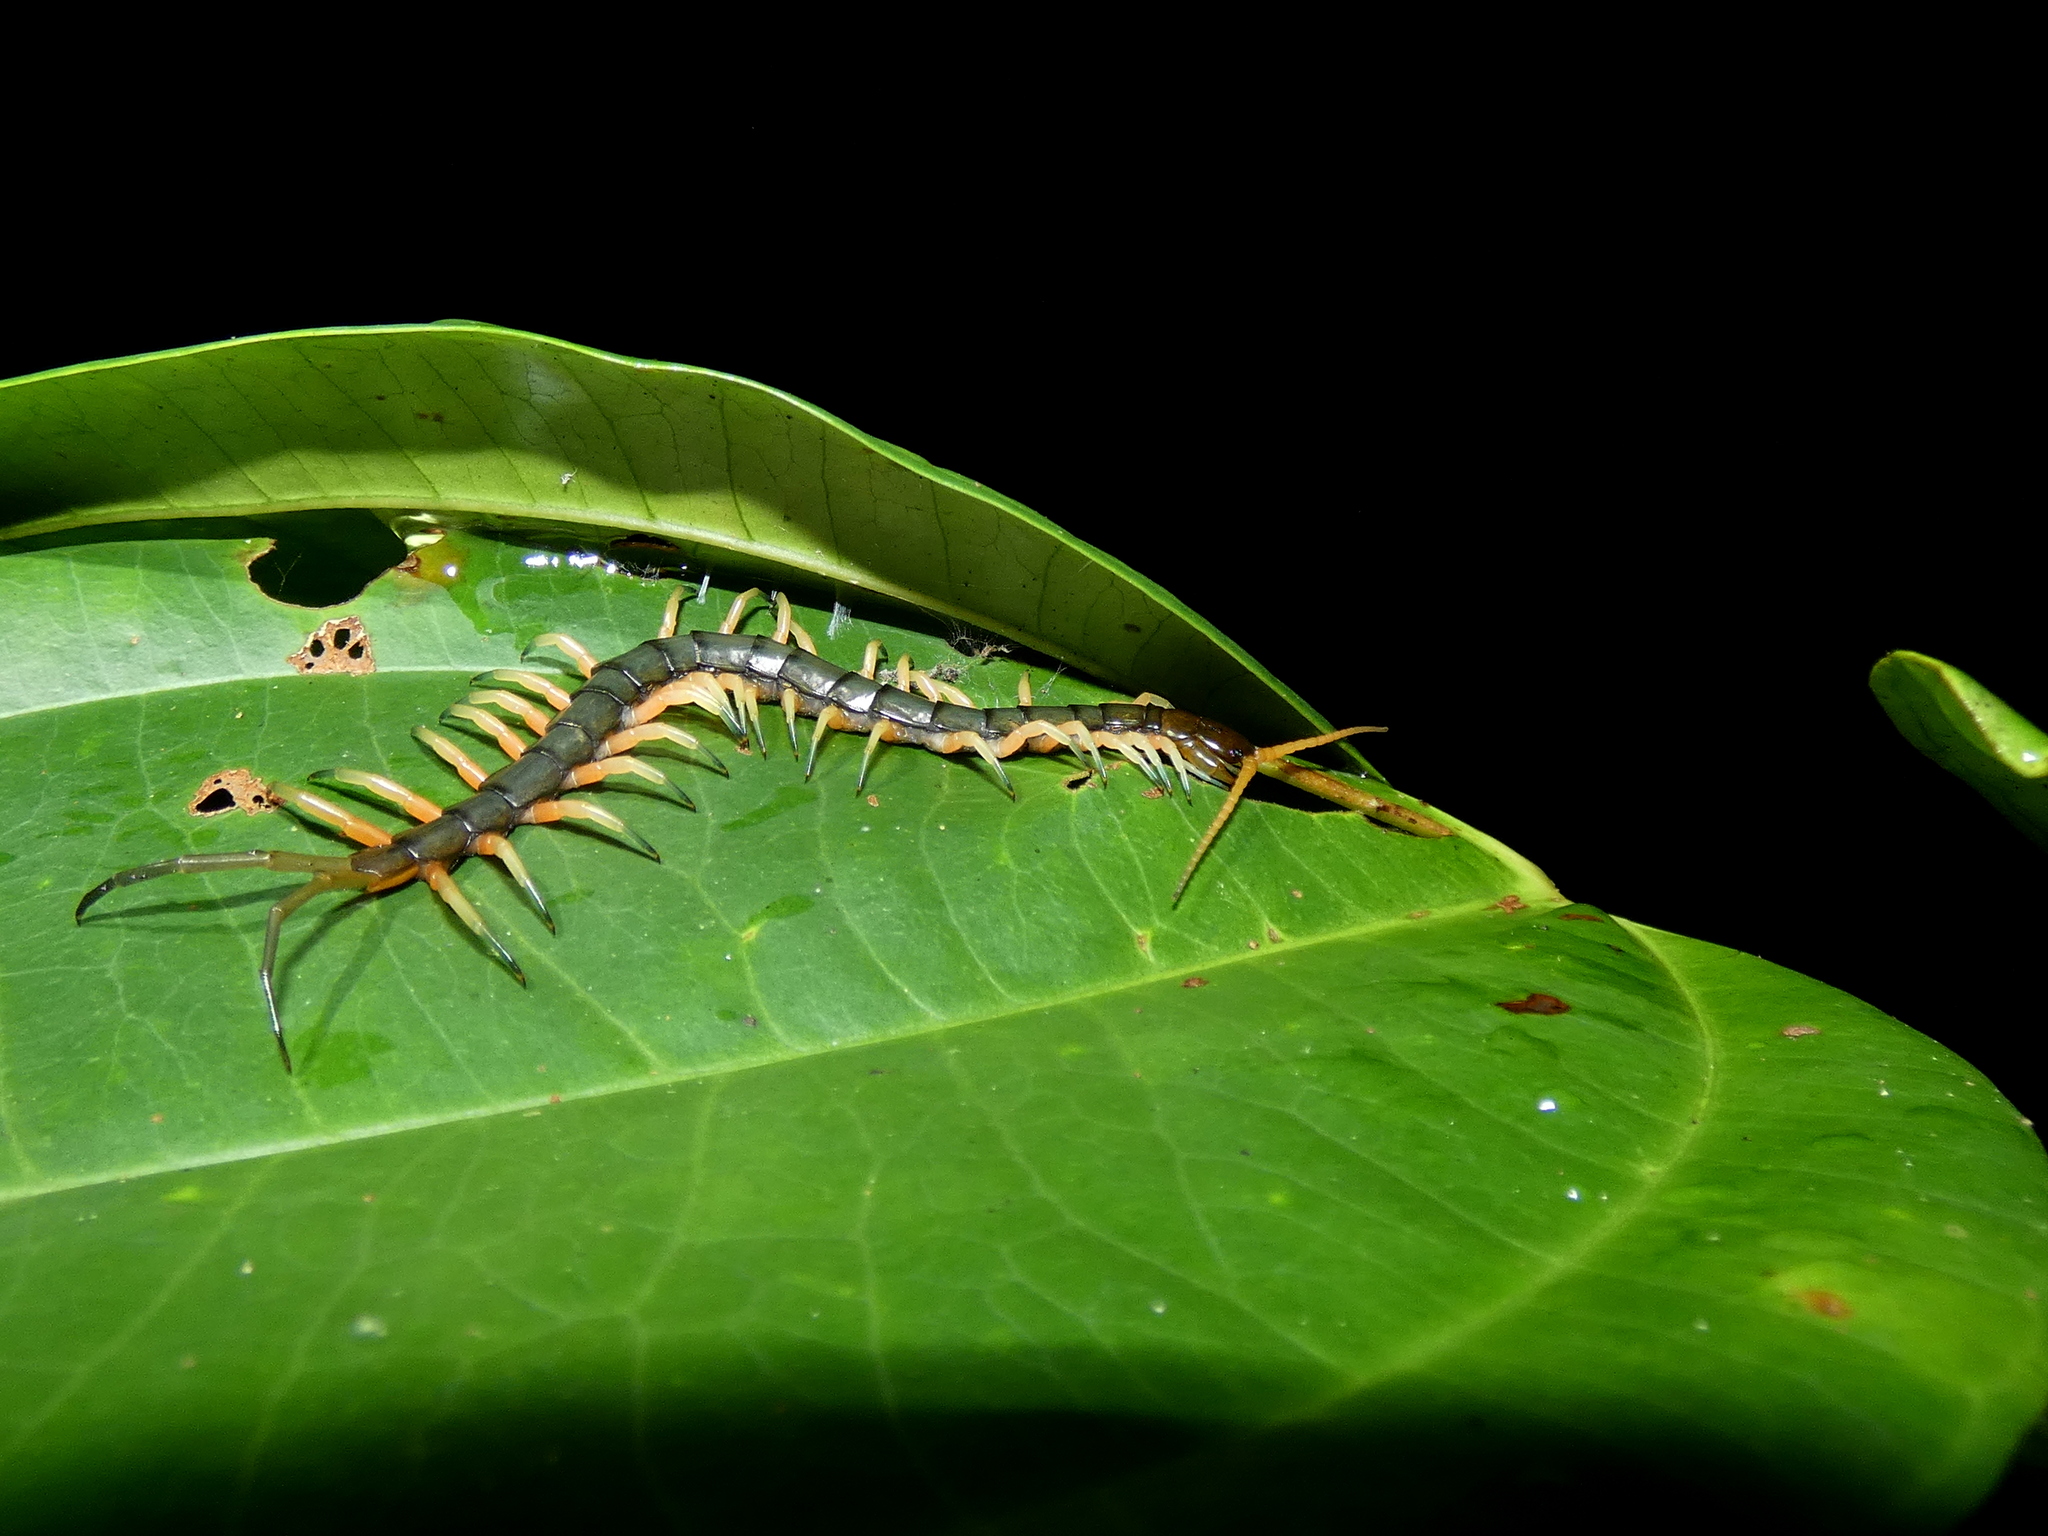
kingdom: Animalia
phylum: Arthropoda
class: Chilopoda
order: Scolopendromorpha
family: Scolopendridae
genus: Scolopendra
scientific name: Scolopendra subspinipes
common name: Centipede
